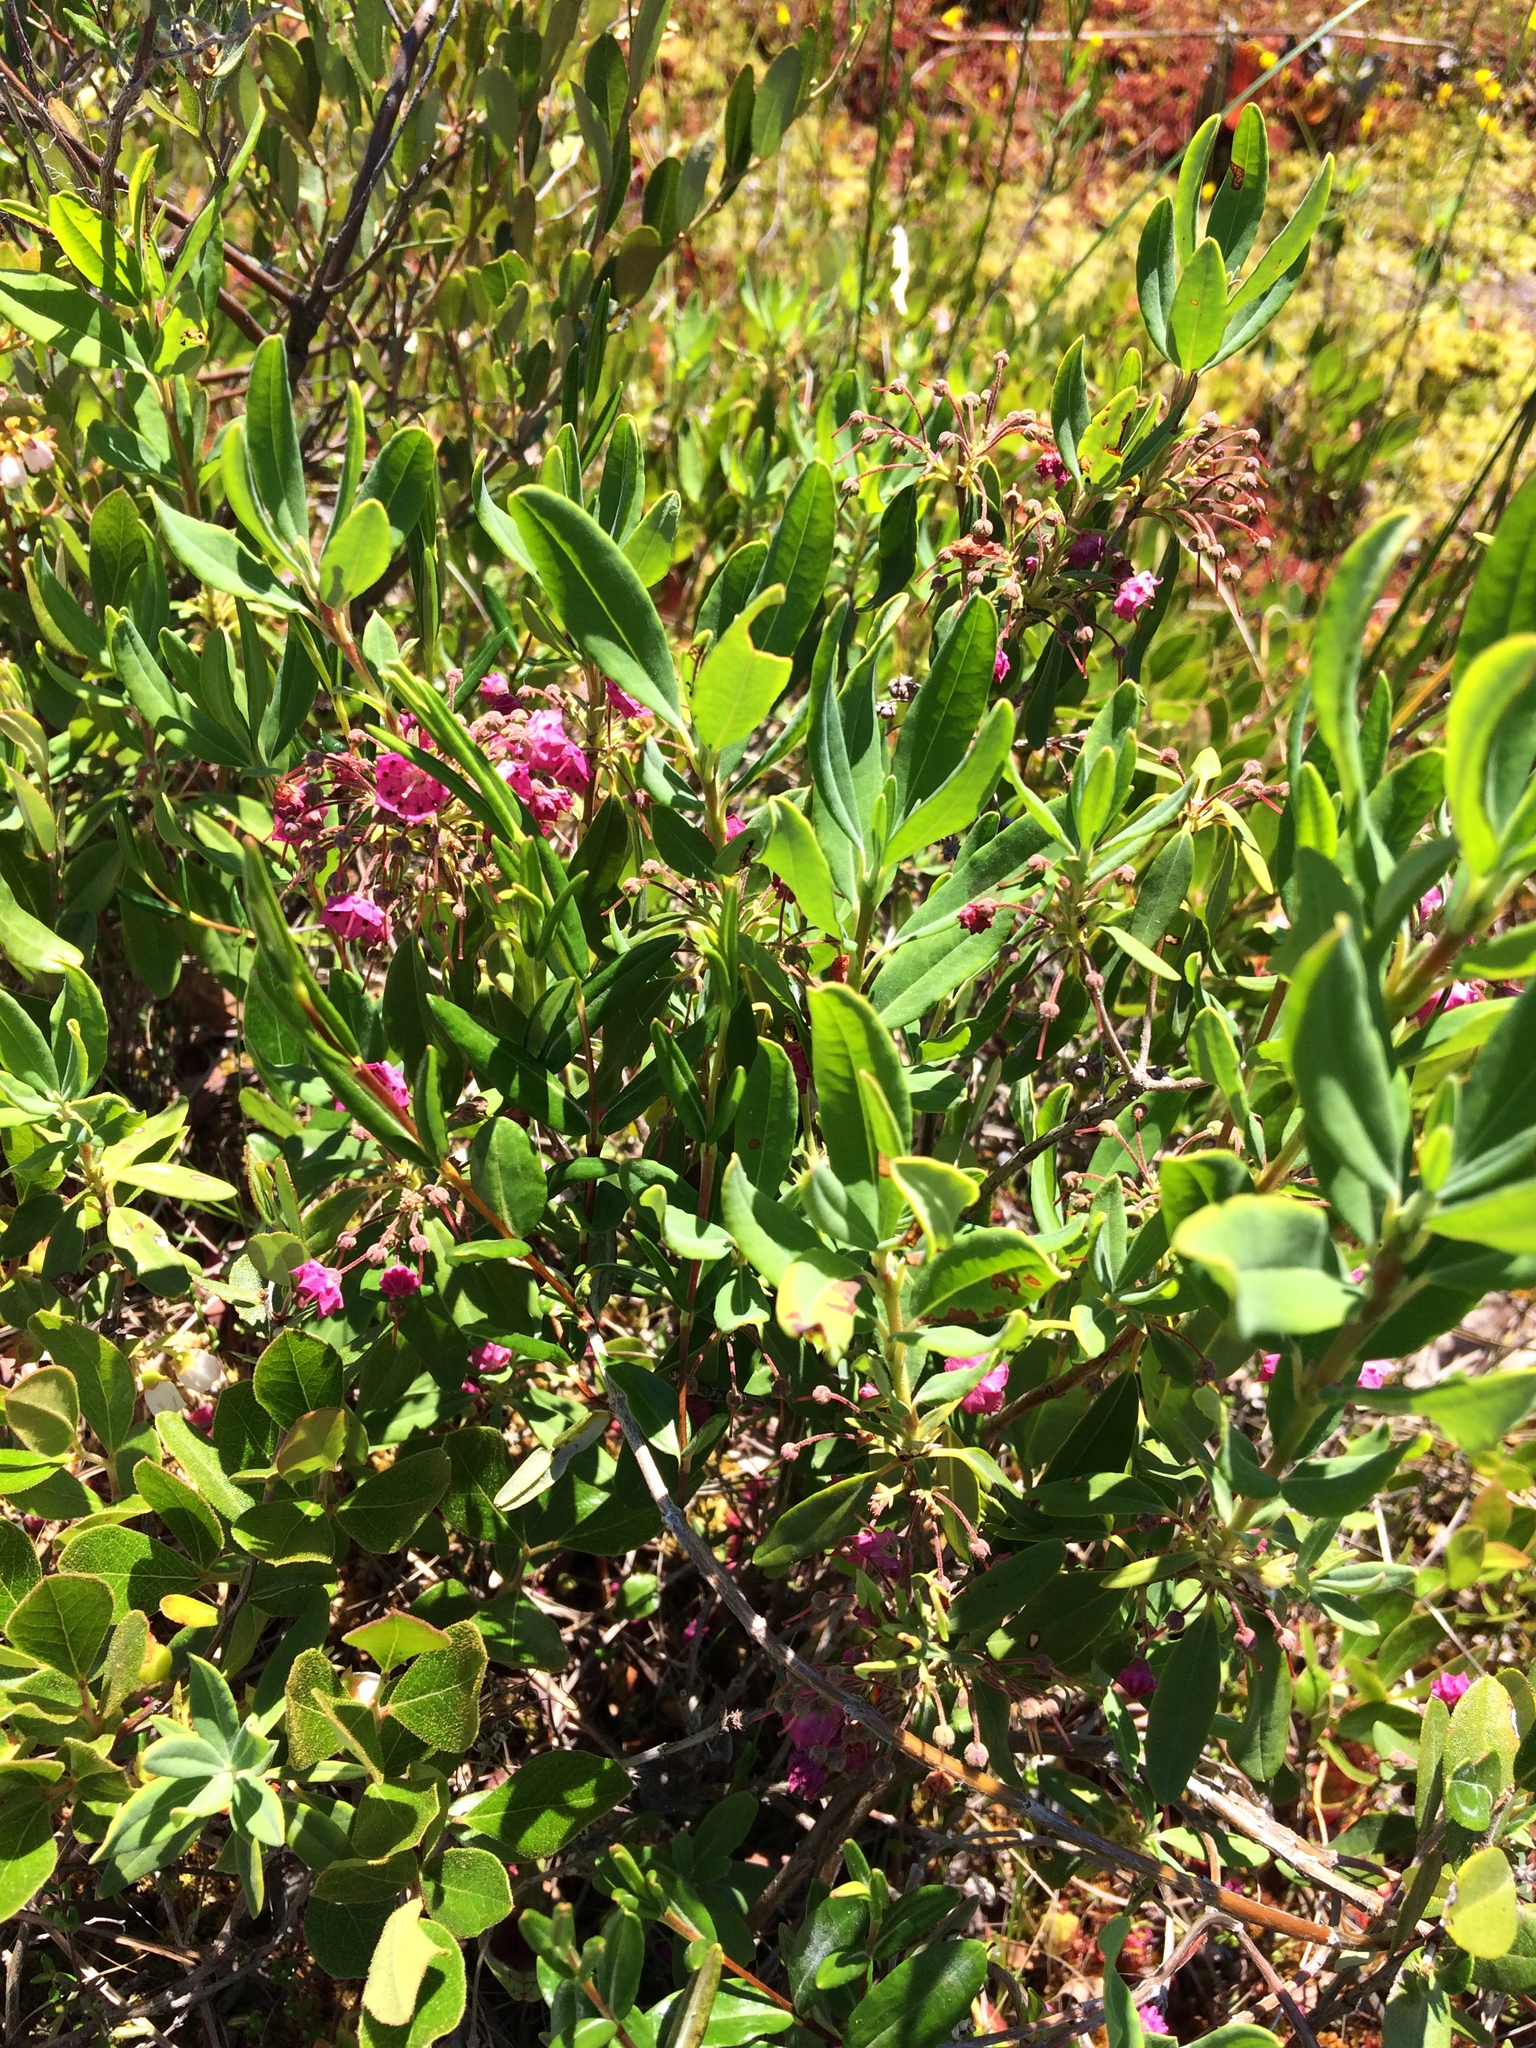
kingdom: Plantae
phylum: Tracheophyta
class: Magnoliopsida
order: Ericales
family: Ericaceae
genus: Kalmia
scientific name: Kalmia angustifolia
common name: Sheep-laurel
